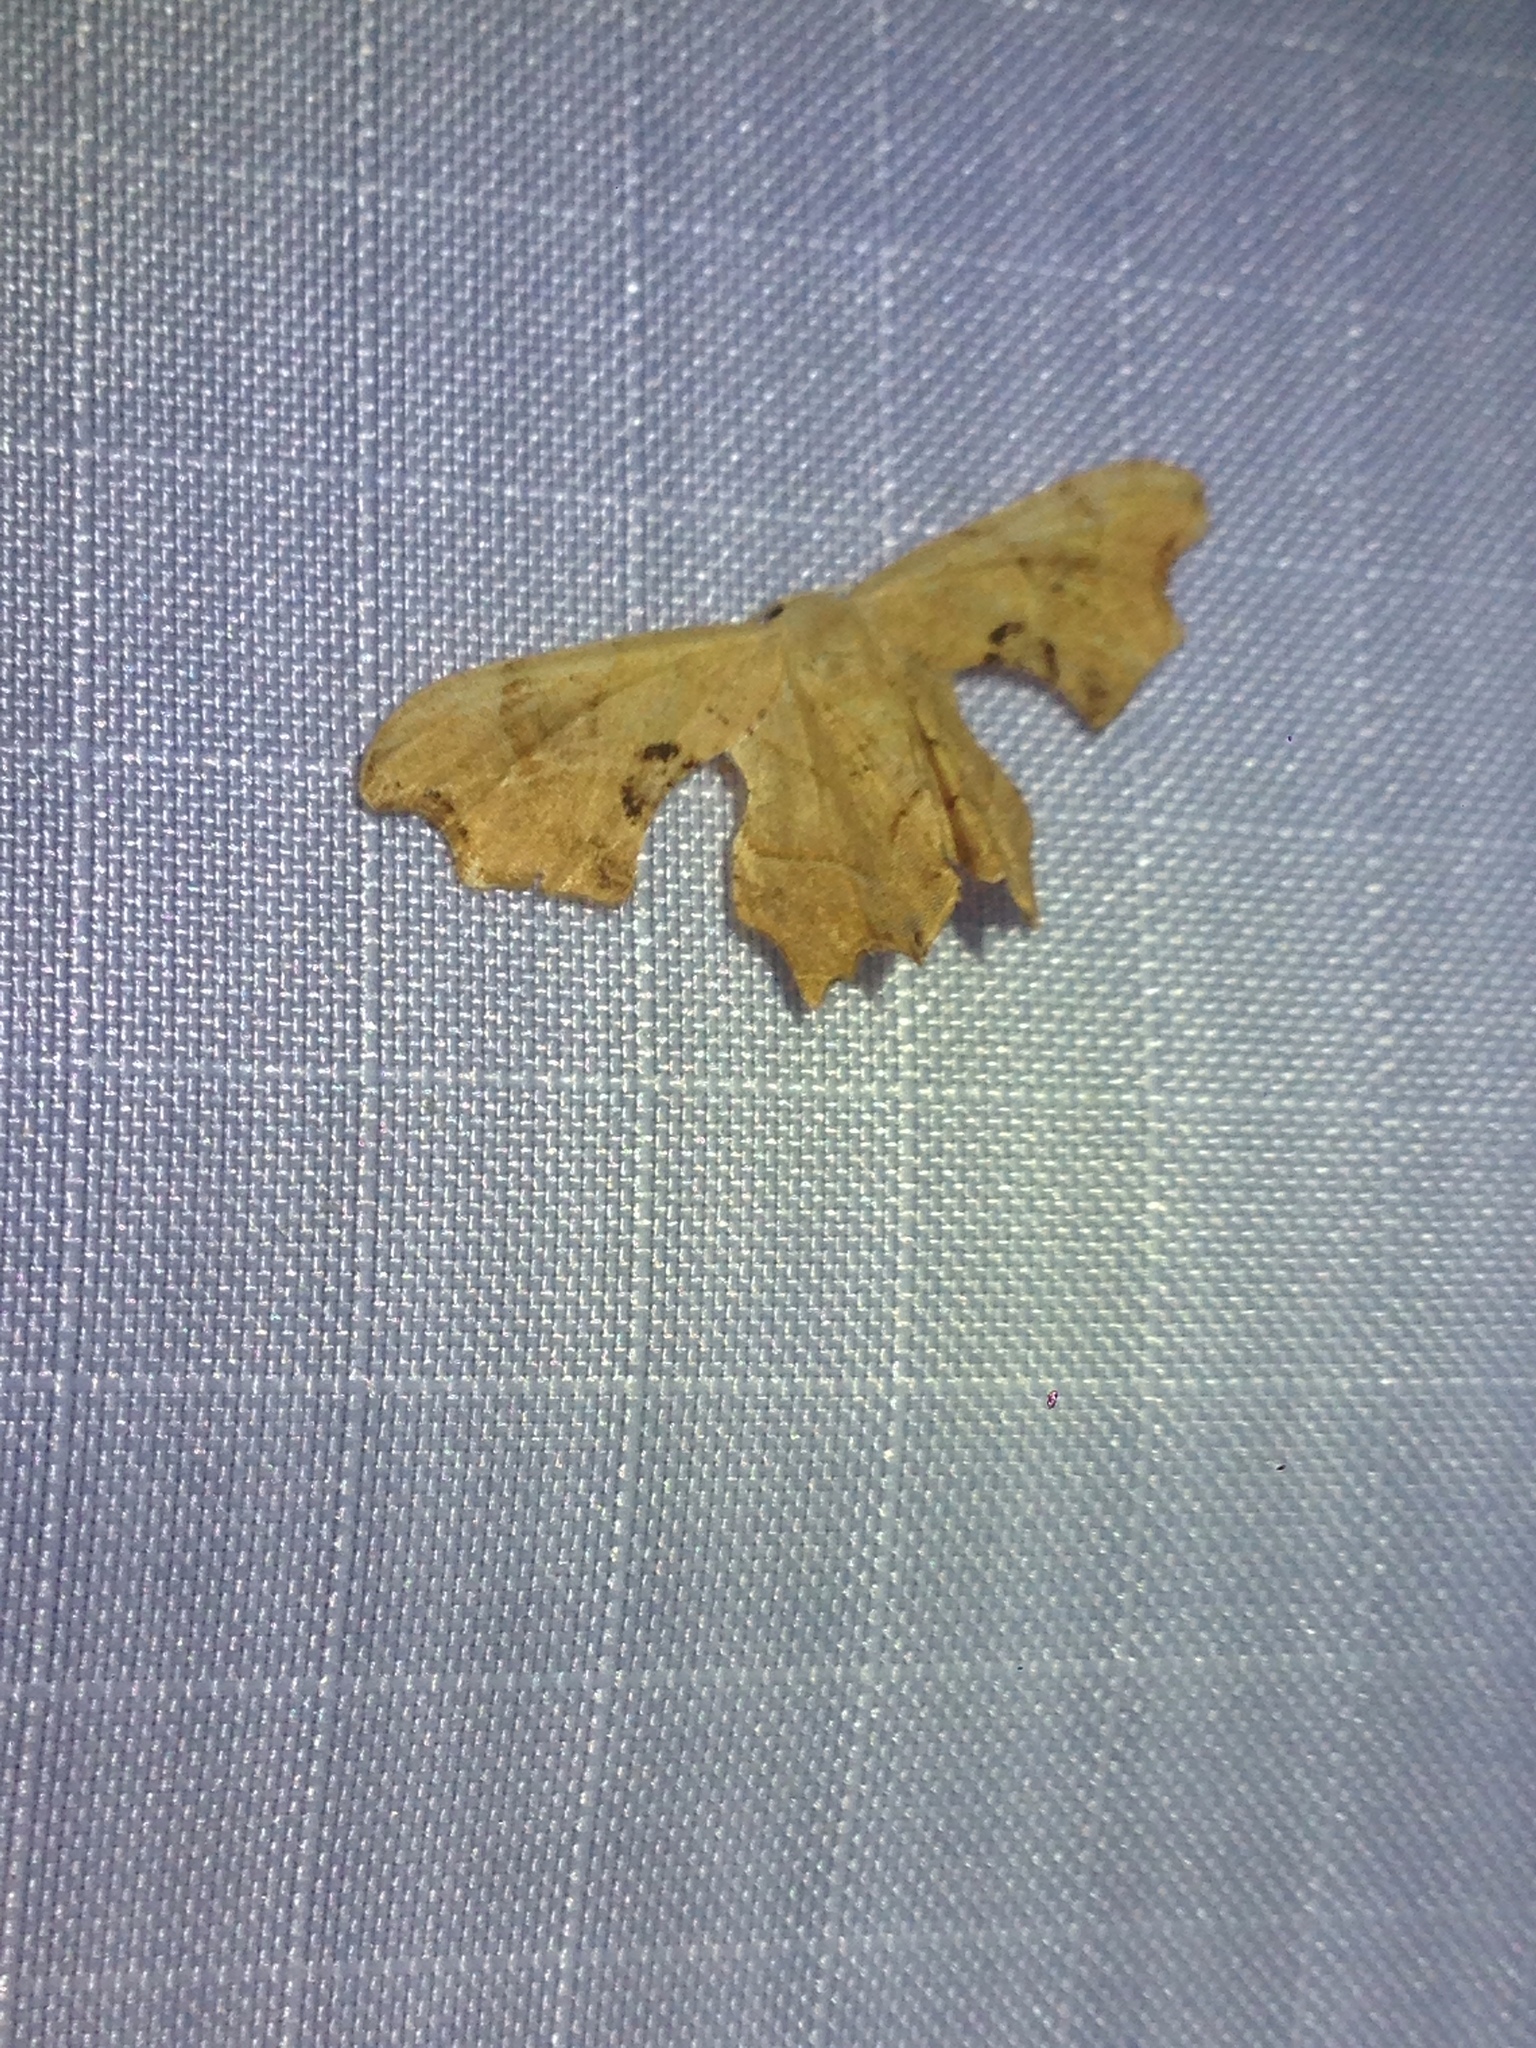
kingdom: Animalia
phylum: Arthropoda
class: Insecta
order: Lepidoptera
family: Uraniidae
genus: Epiplema
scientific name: Epiplema Calledapteryx dryopterata
